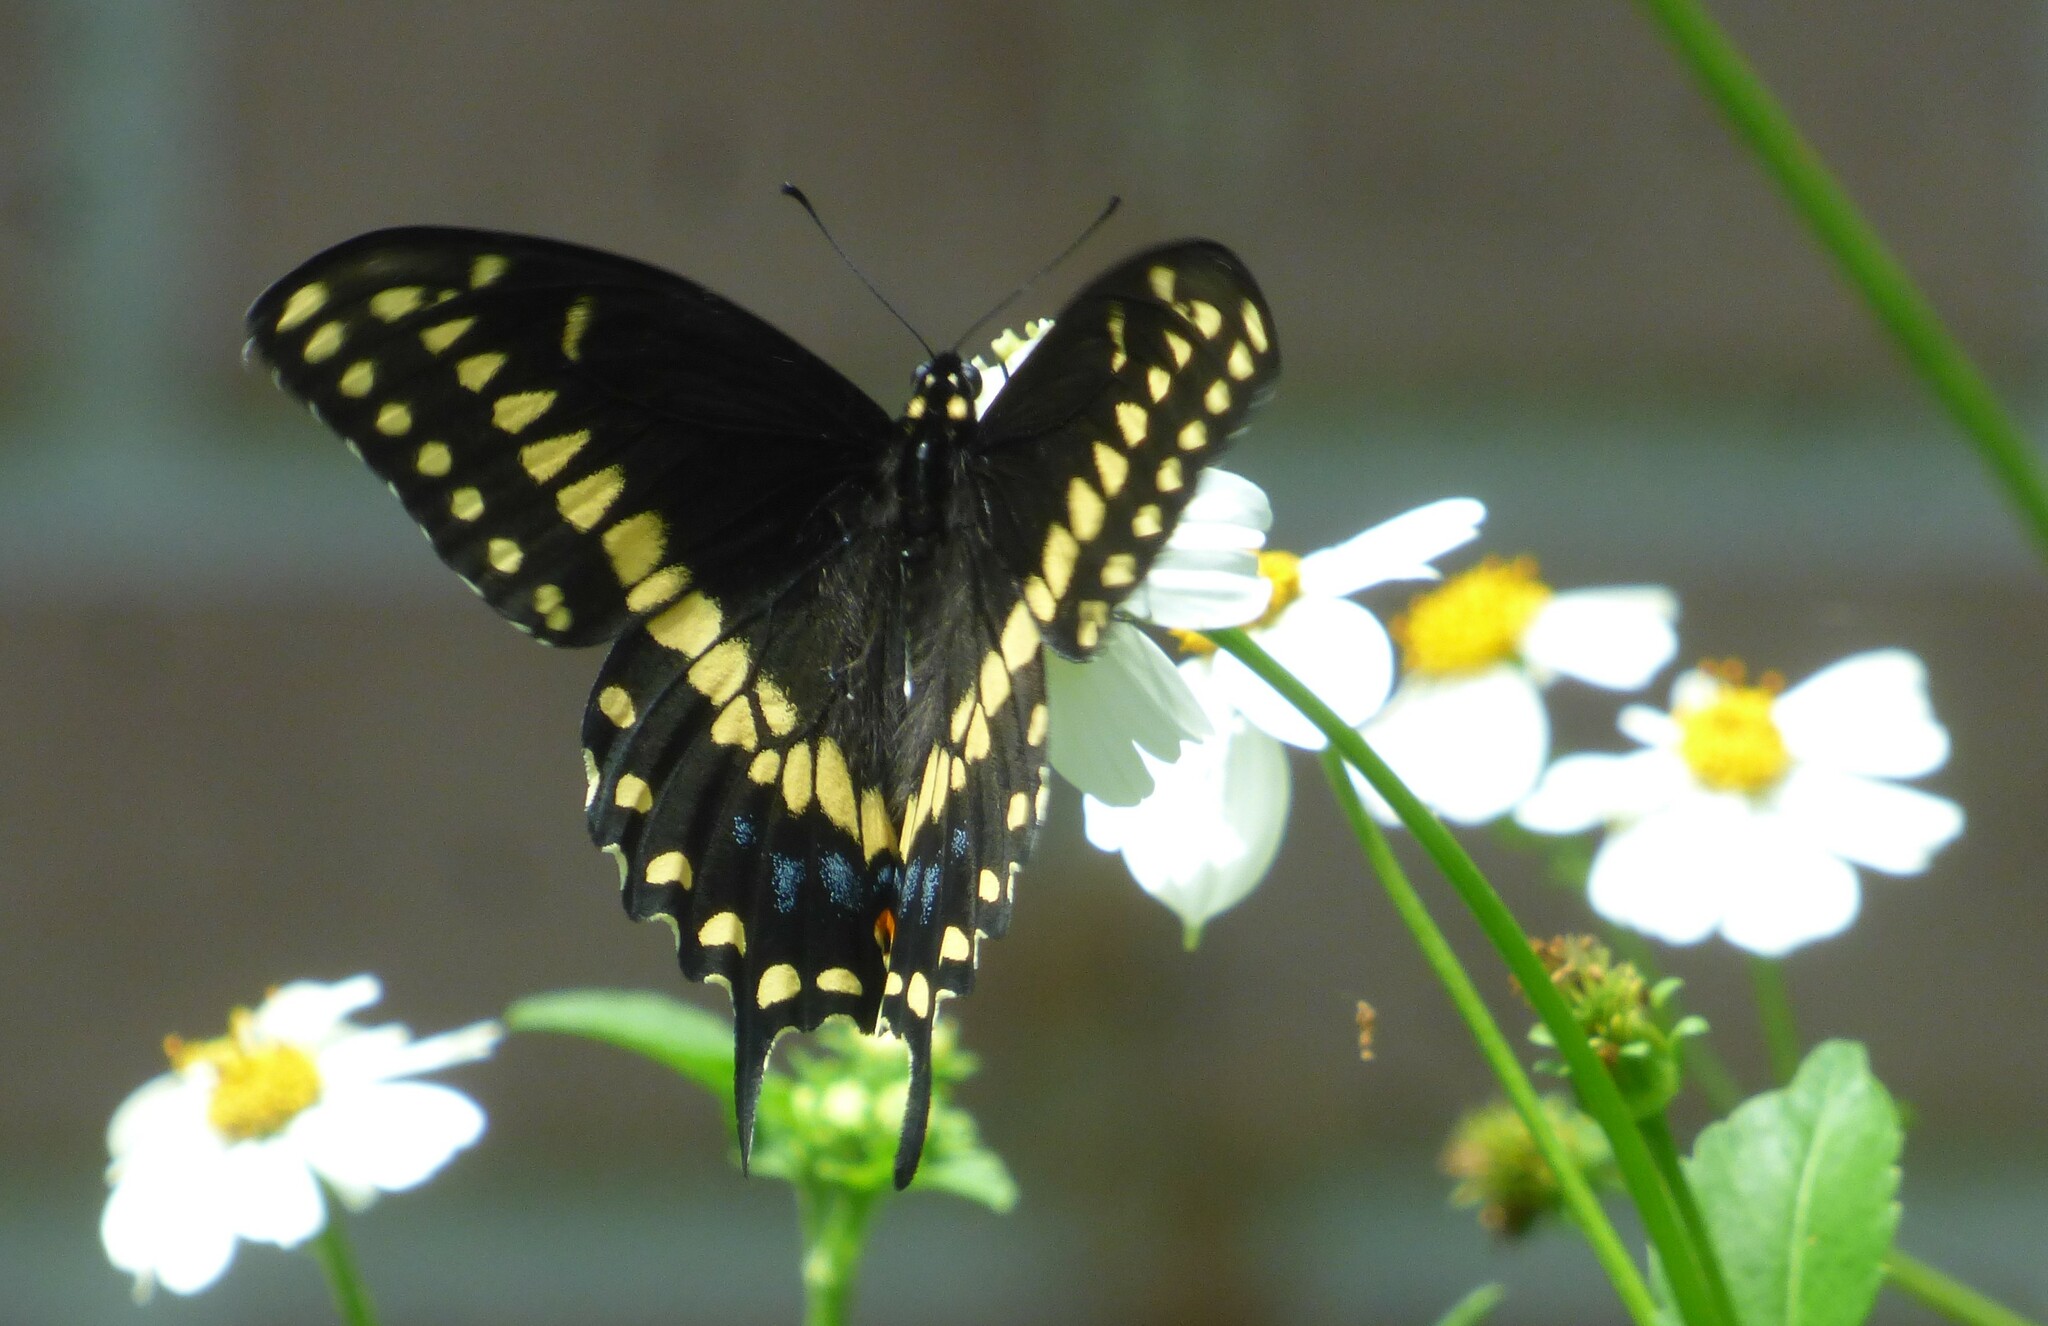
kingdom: Animalia
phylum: Arthropoda
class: Insecta
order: Lepidoptera
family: Papilionidae
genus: Papilio
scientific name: Papilio polyxenes
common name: Black swallowtail
